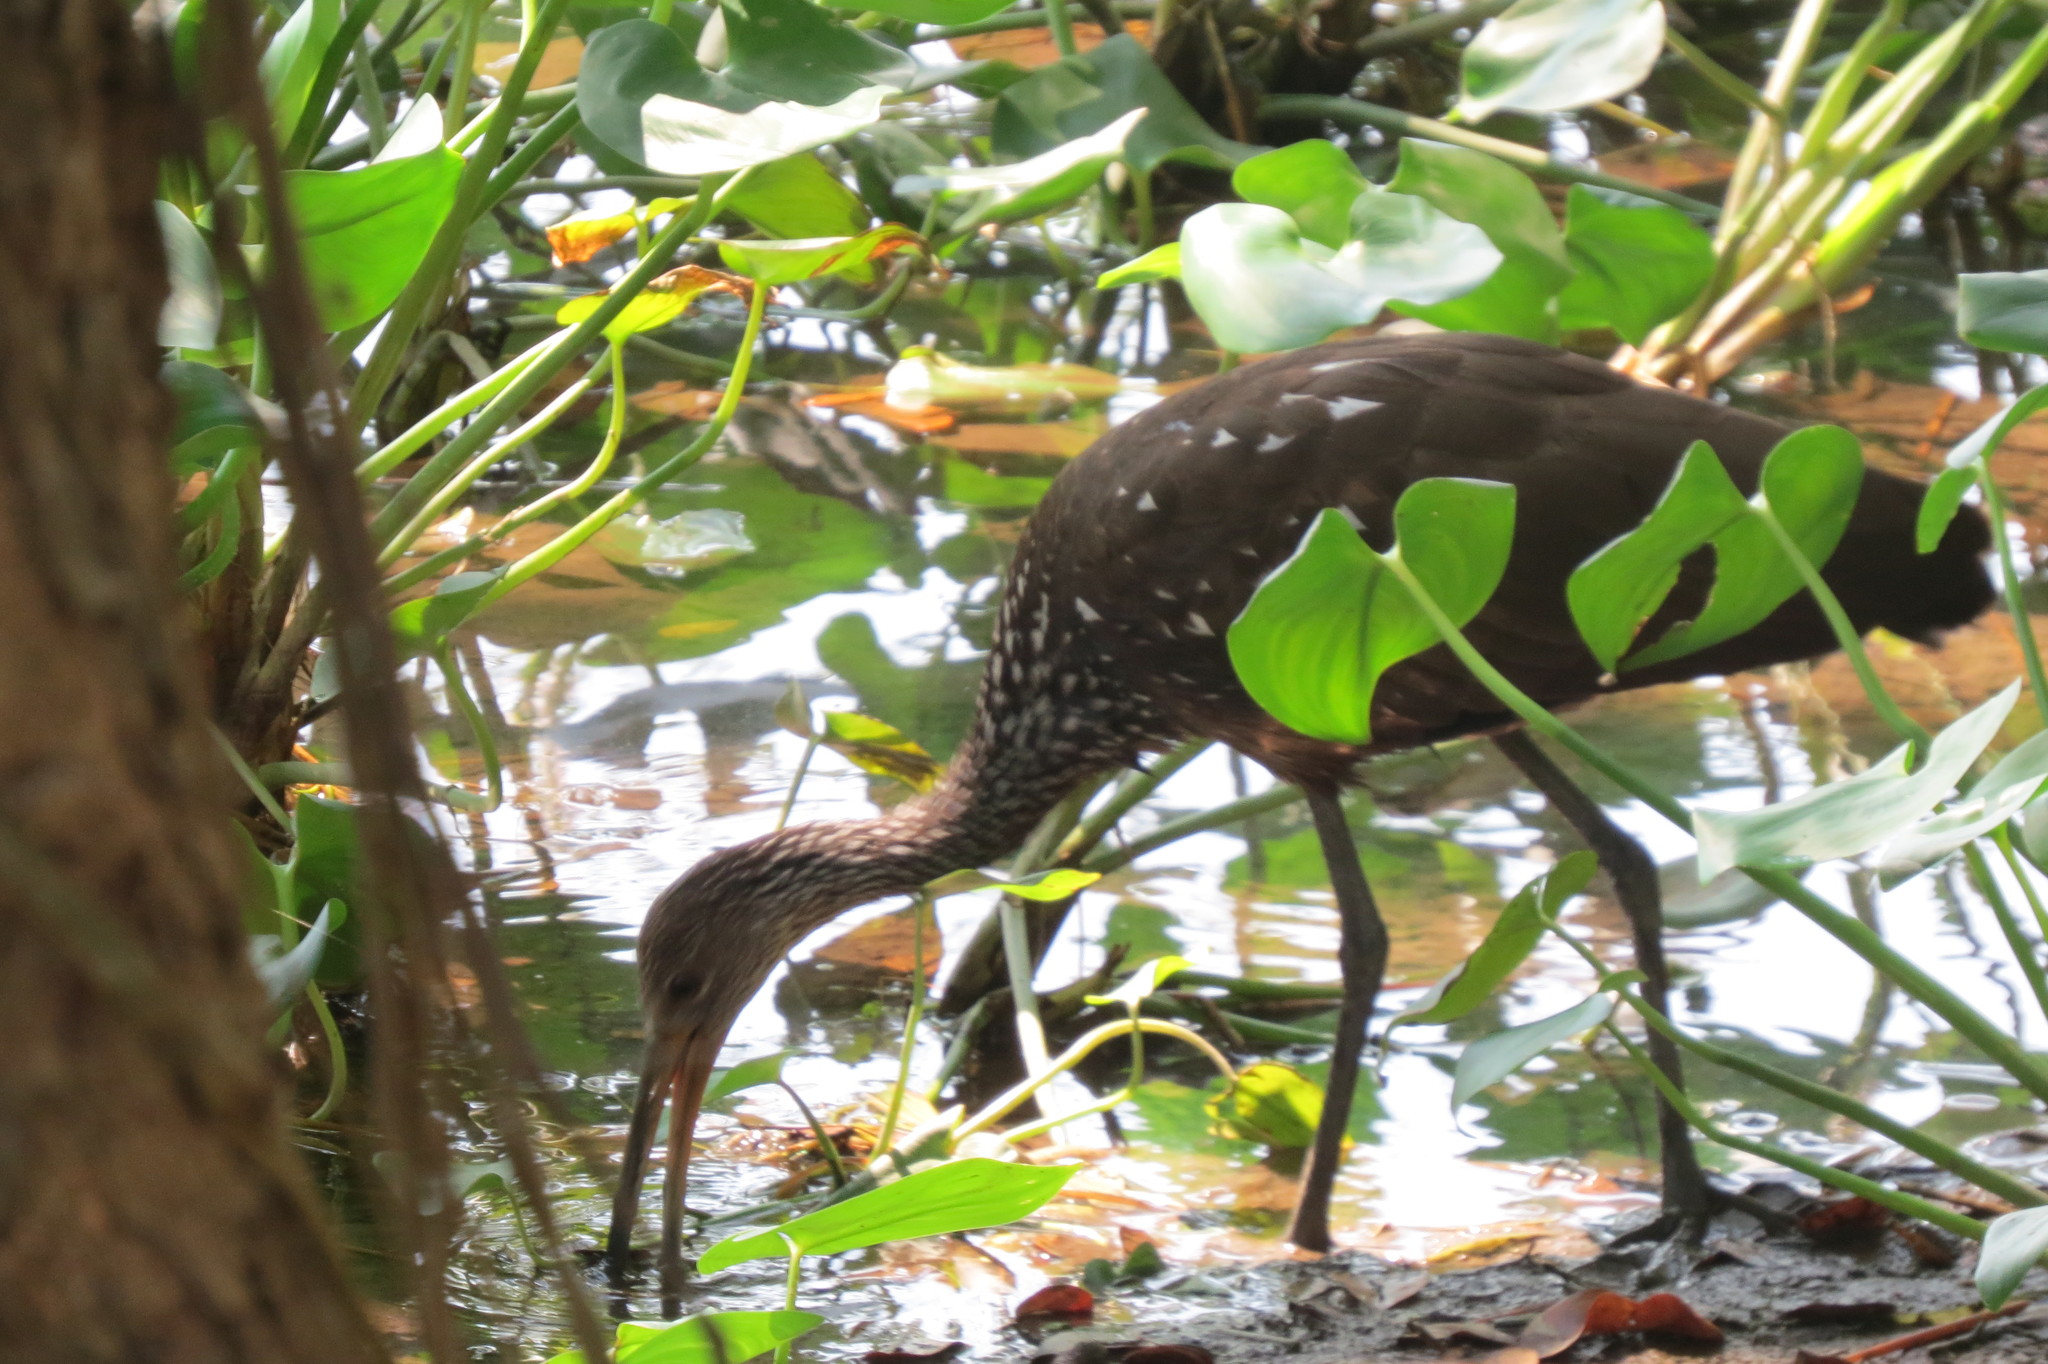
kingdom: Animalia
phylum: Chordata
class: Aves
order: Gruiformes
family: Aramidae
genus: Aramus
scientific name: Aramus guarauna
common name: Limpkin
